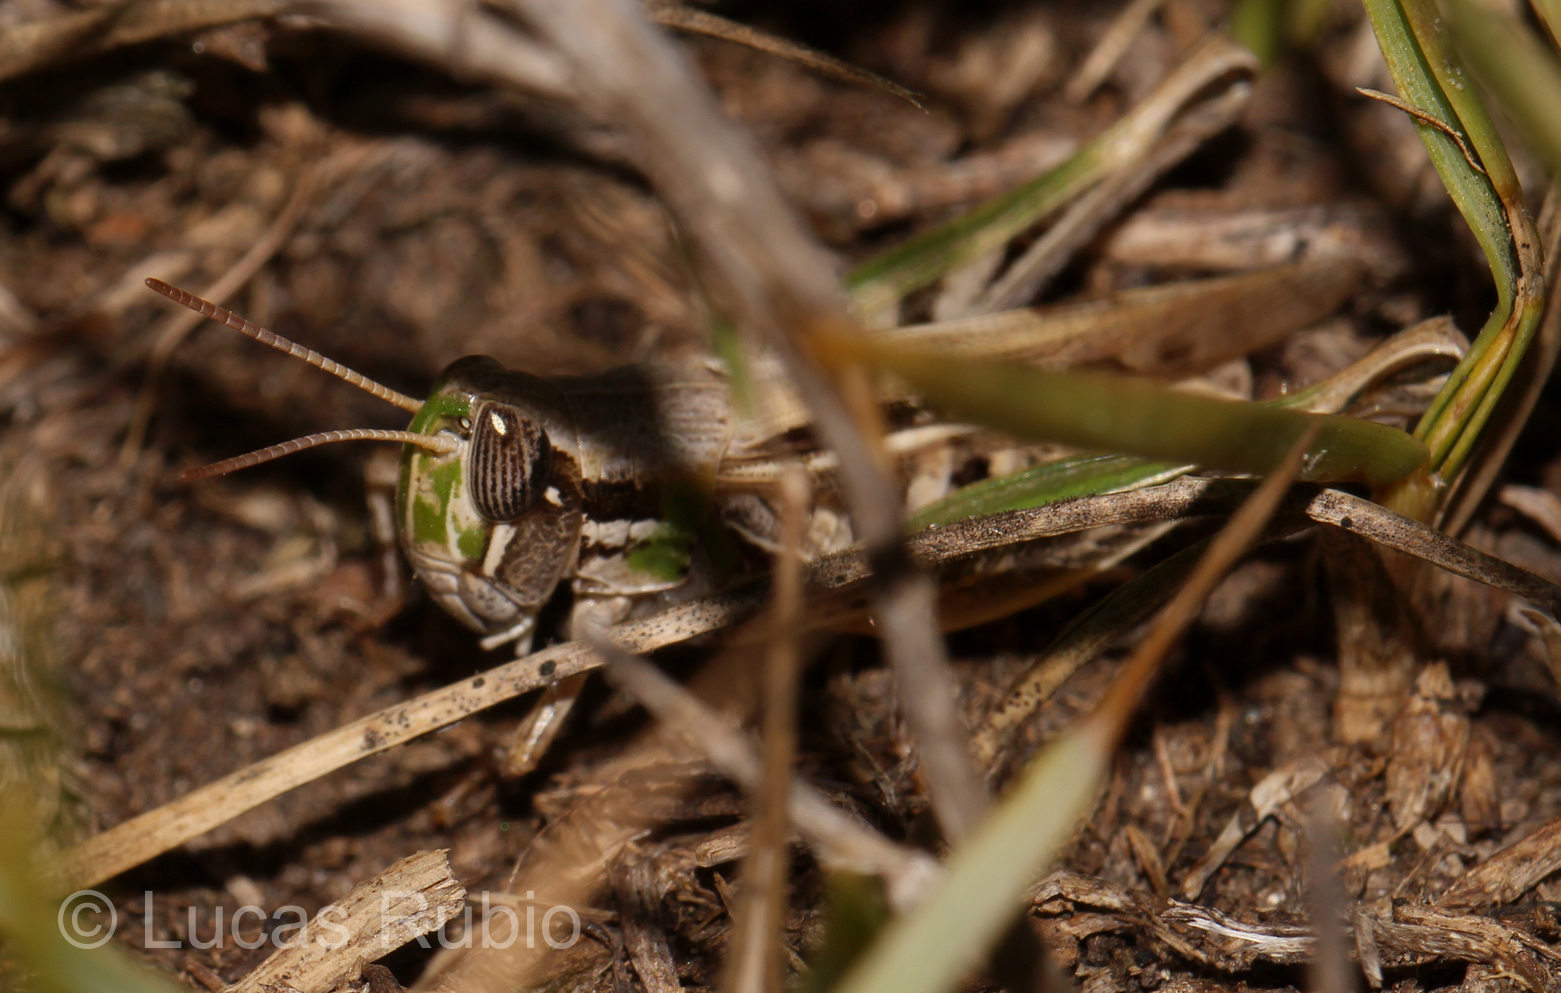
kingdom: Animalia
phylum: Arthropoda
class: Insecta
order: Orthoptera
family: Acrididae
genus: Borellia
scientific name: Borellia bruneri
